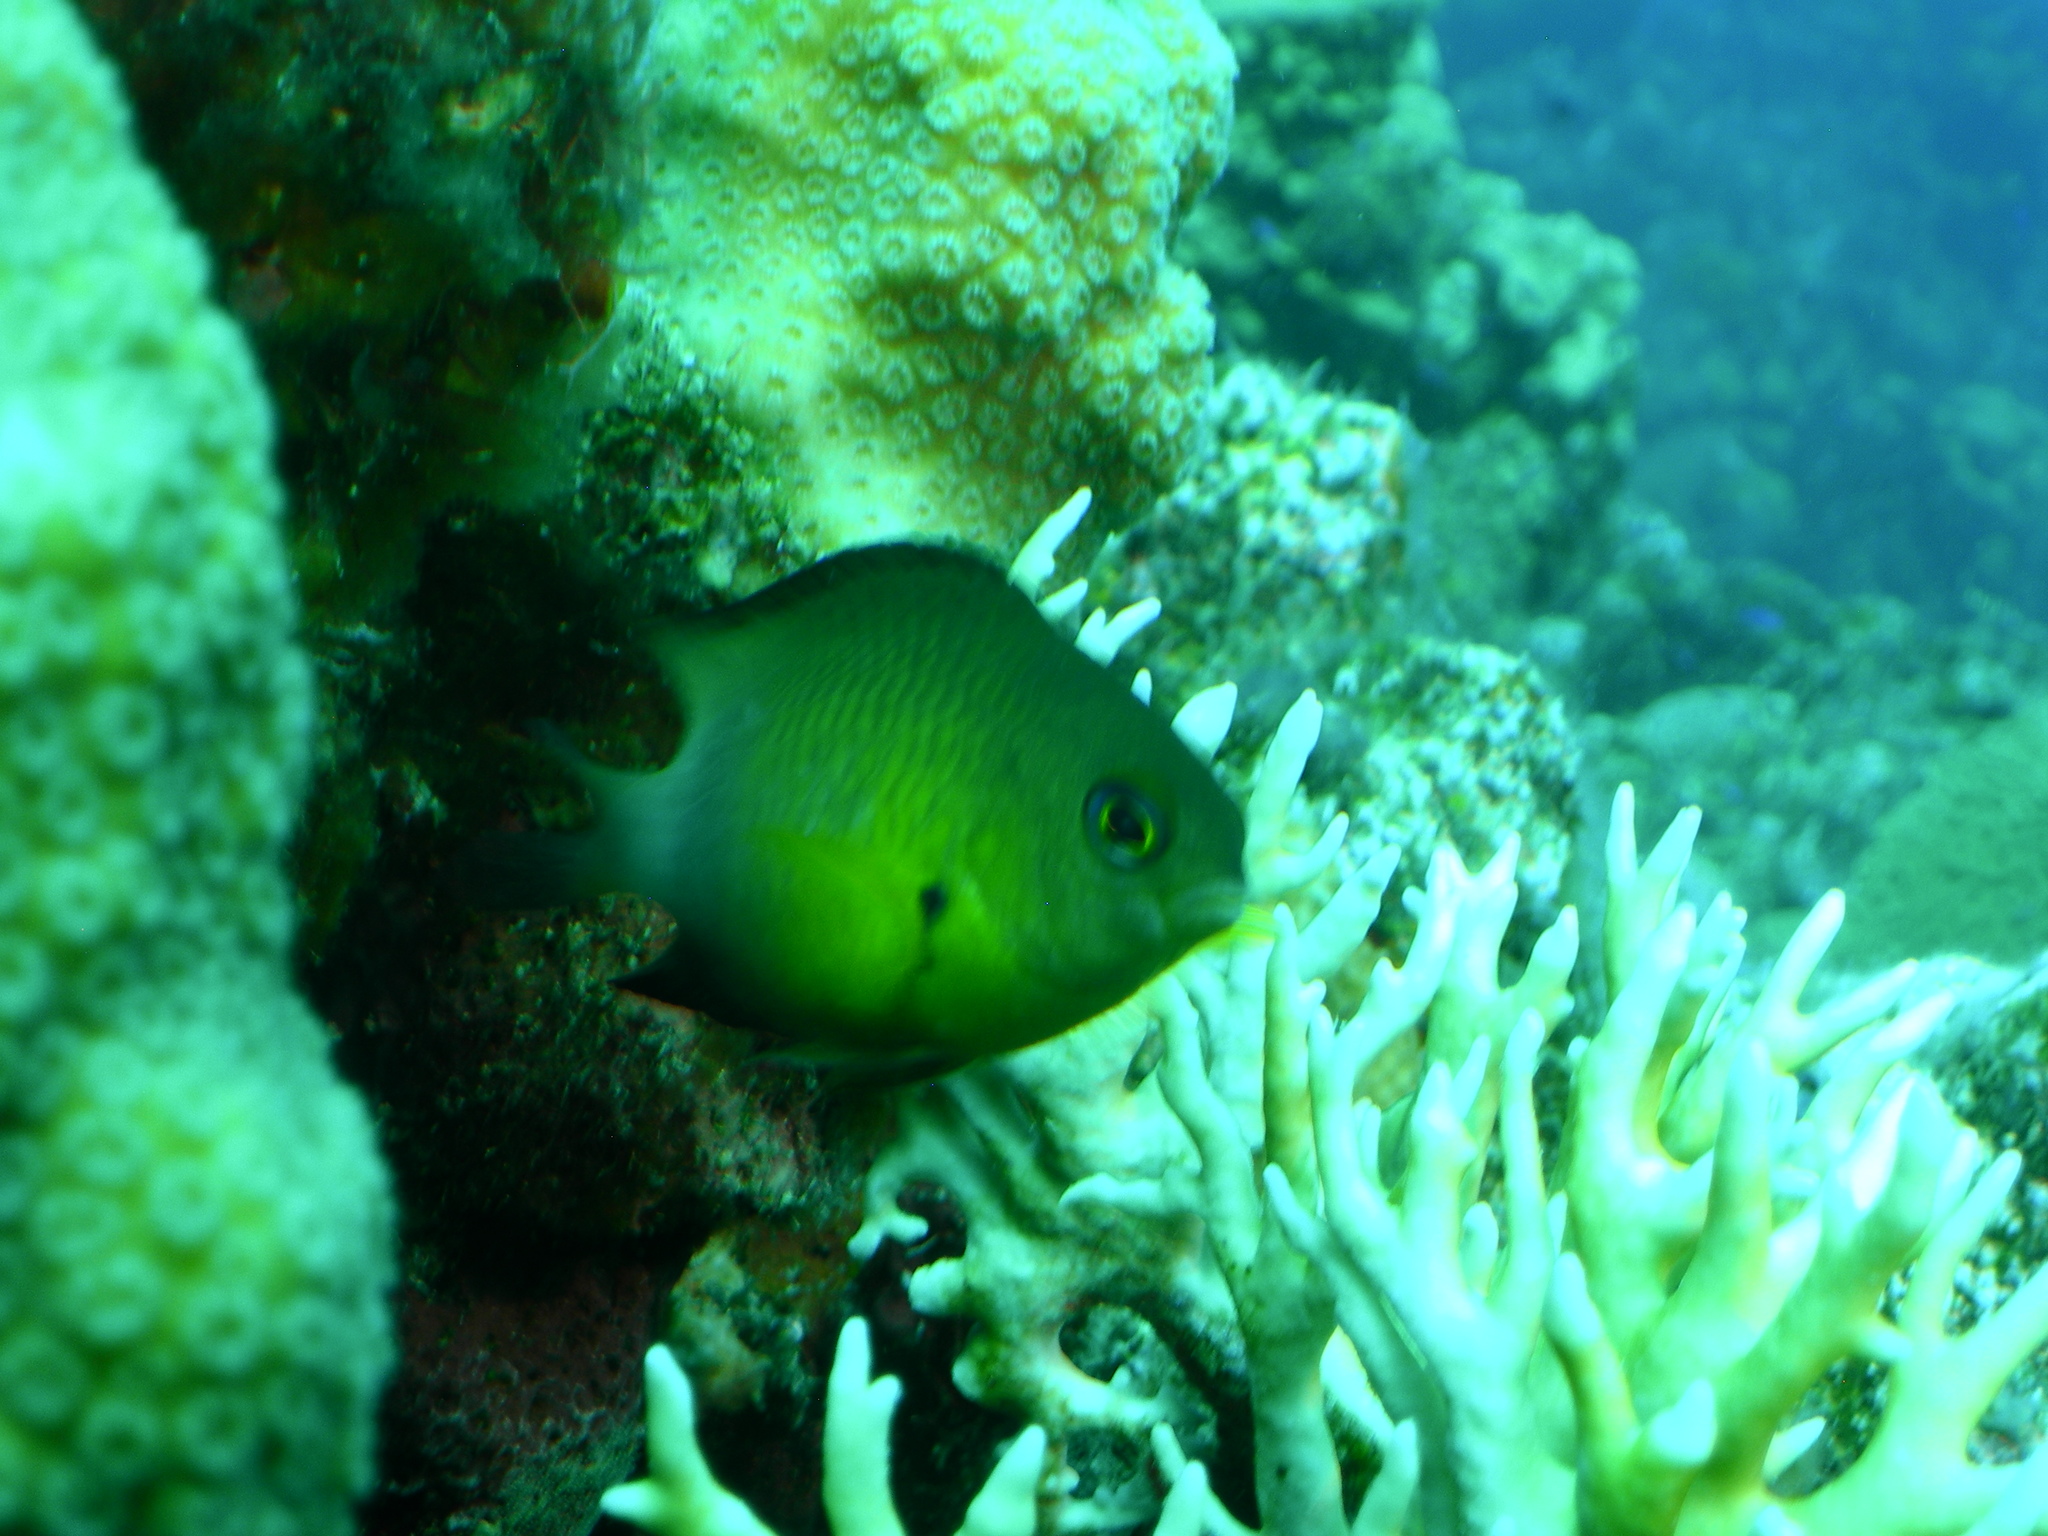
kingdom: Animalia
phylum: Chordata
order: Perciformes
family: Pomacentridae
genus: Stegastes
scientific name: Stegastes partitus
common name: Bicolor damselfish
